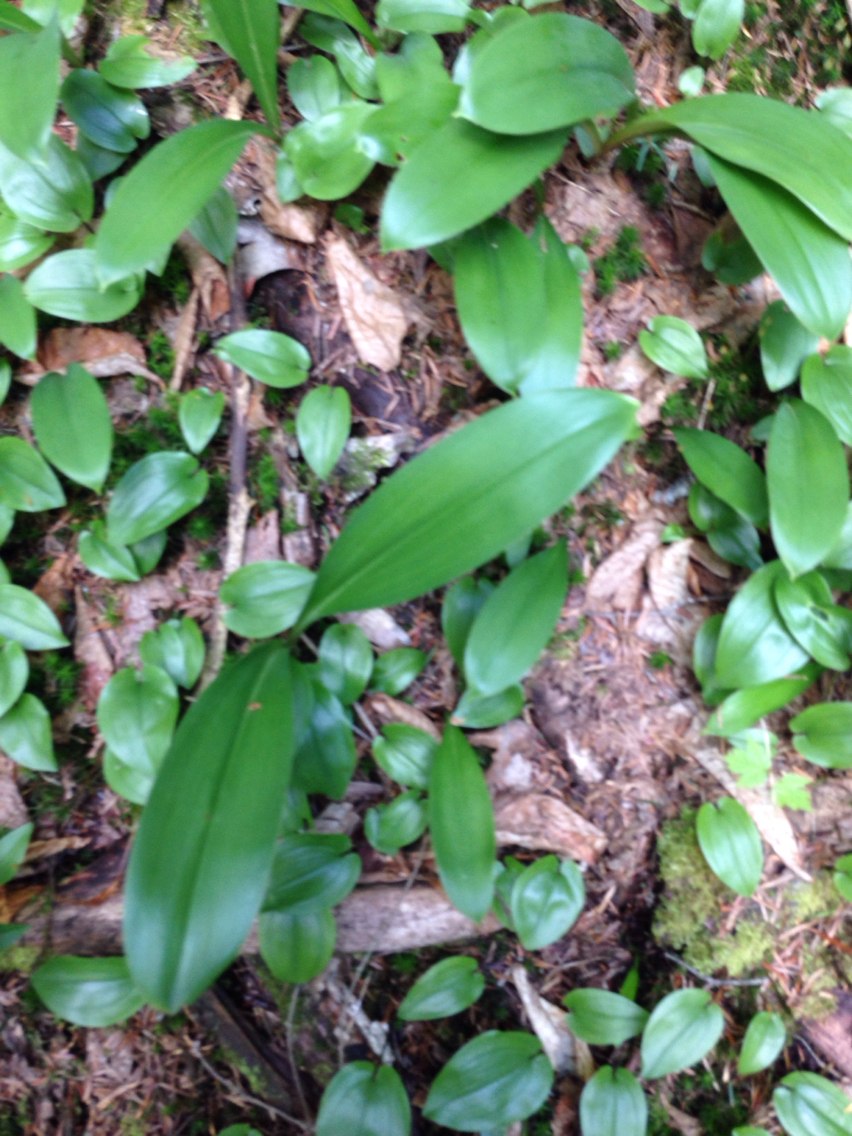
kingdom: Plantae
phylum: Tracheophyta
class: Liliopsida
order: Liliales
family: Liliaceae
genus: Clintonia
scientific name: Clintonia borealis
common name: Yellow clintonia
